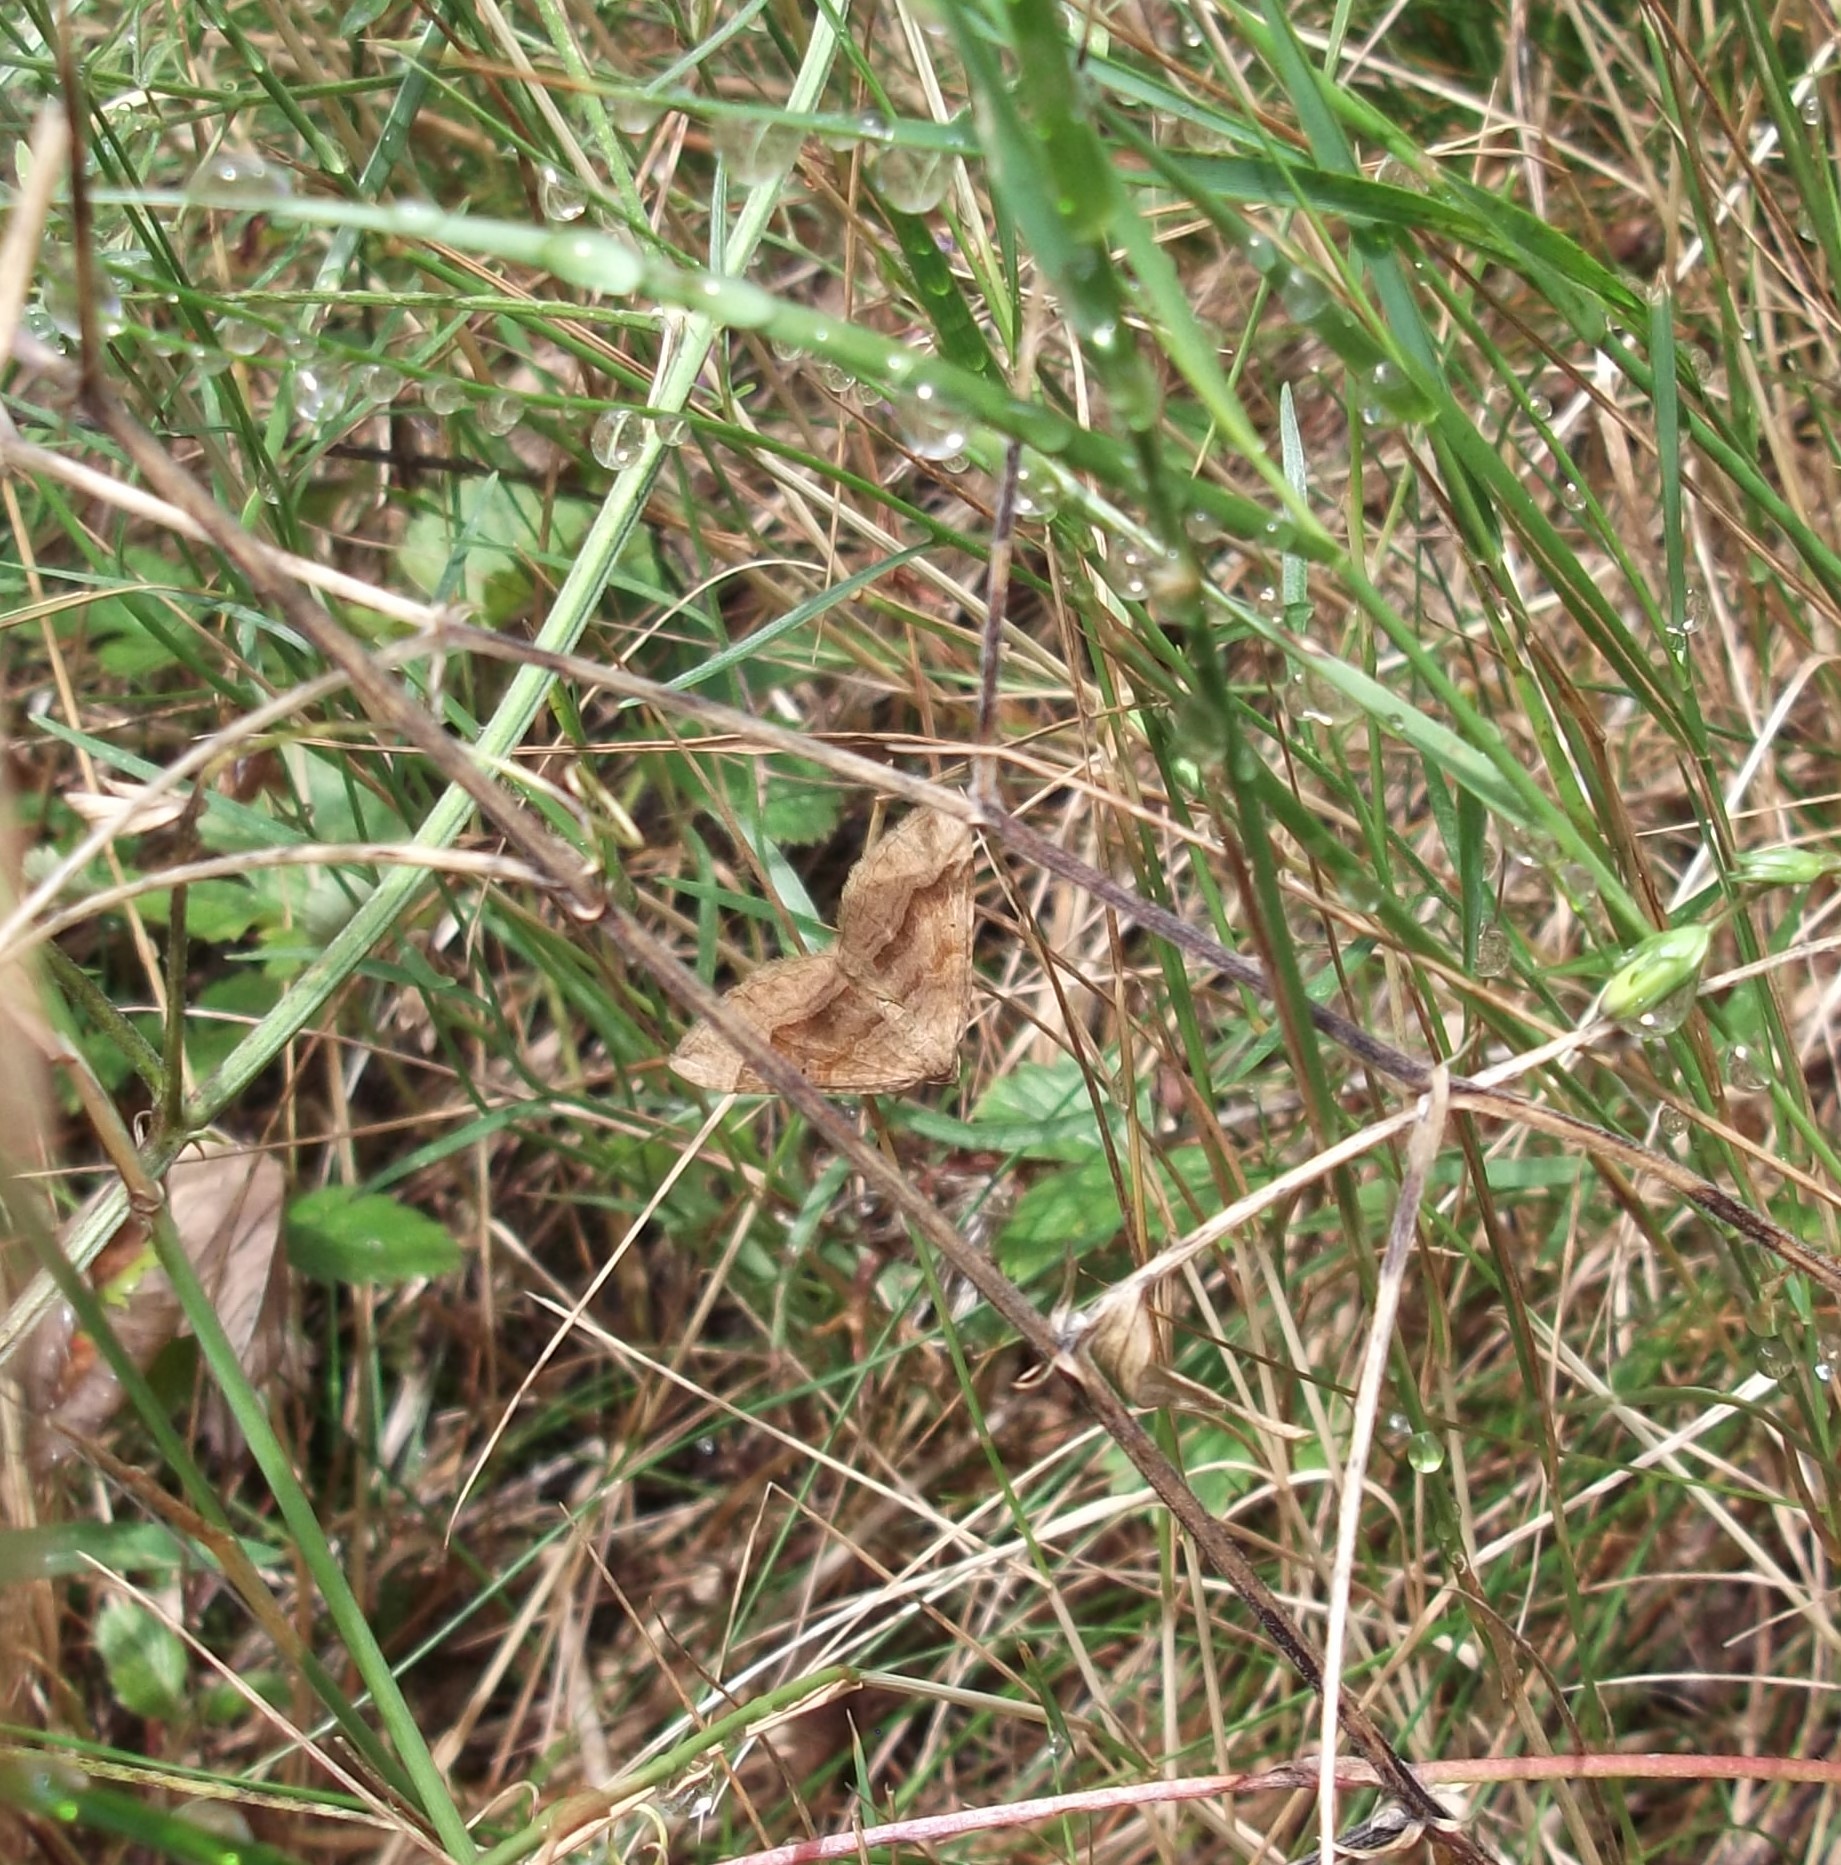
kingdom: Animalia
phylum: Arthropoda
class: Insecta
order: Lepidoptera
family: Geometridae
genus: Scotopteryx
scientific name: Scotopteryx chenopodiata
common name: Shaded broad-bar
